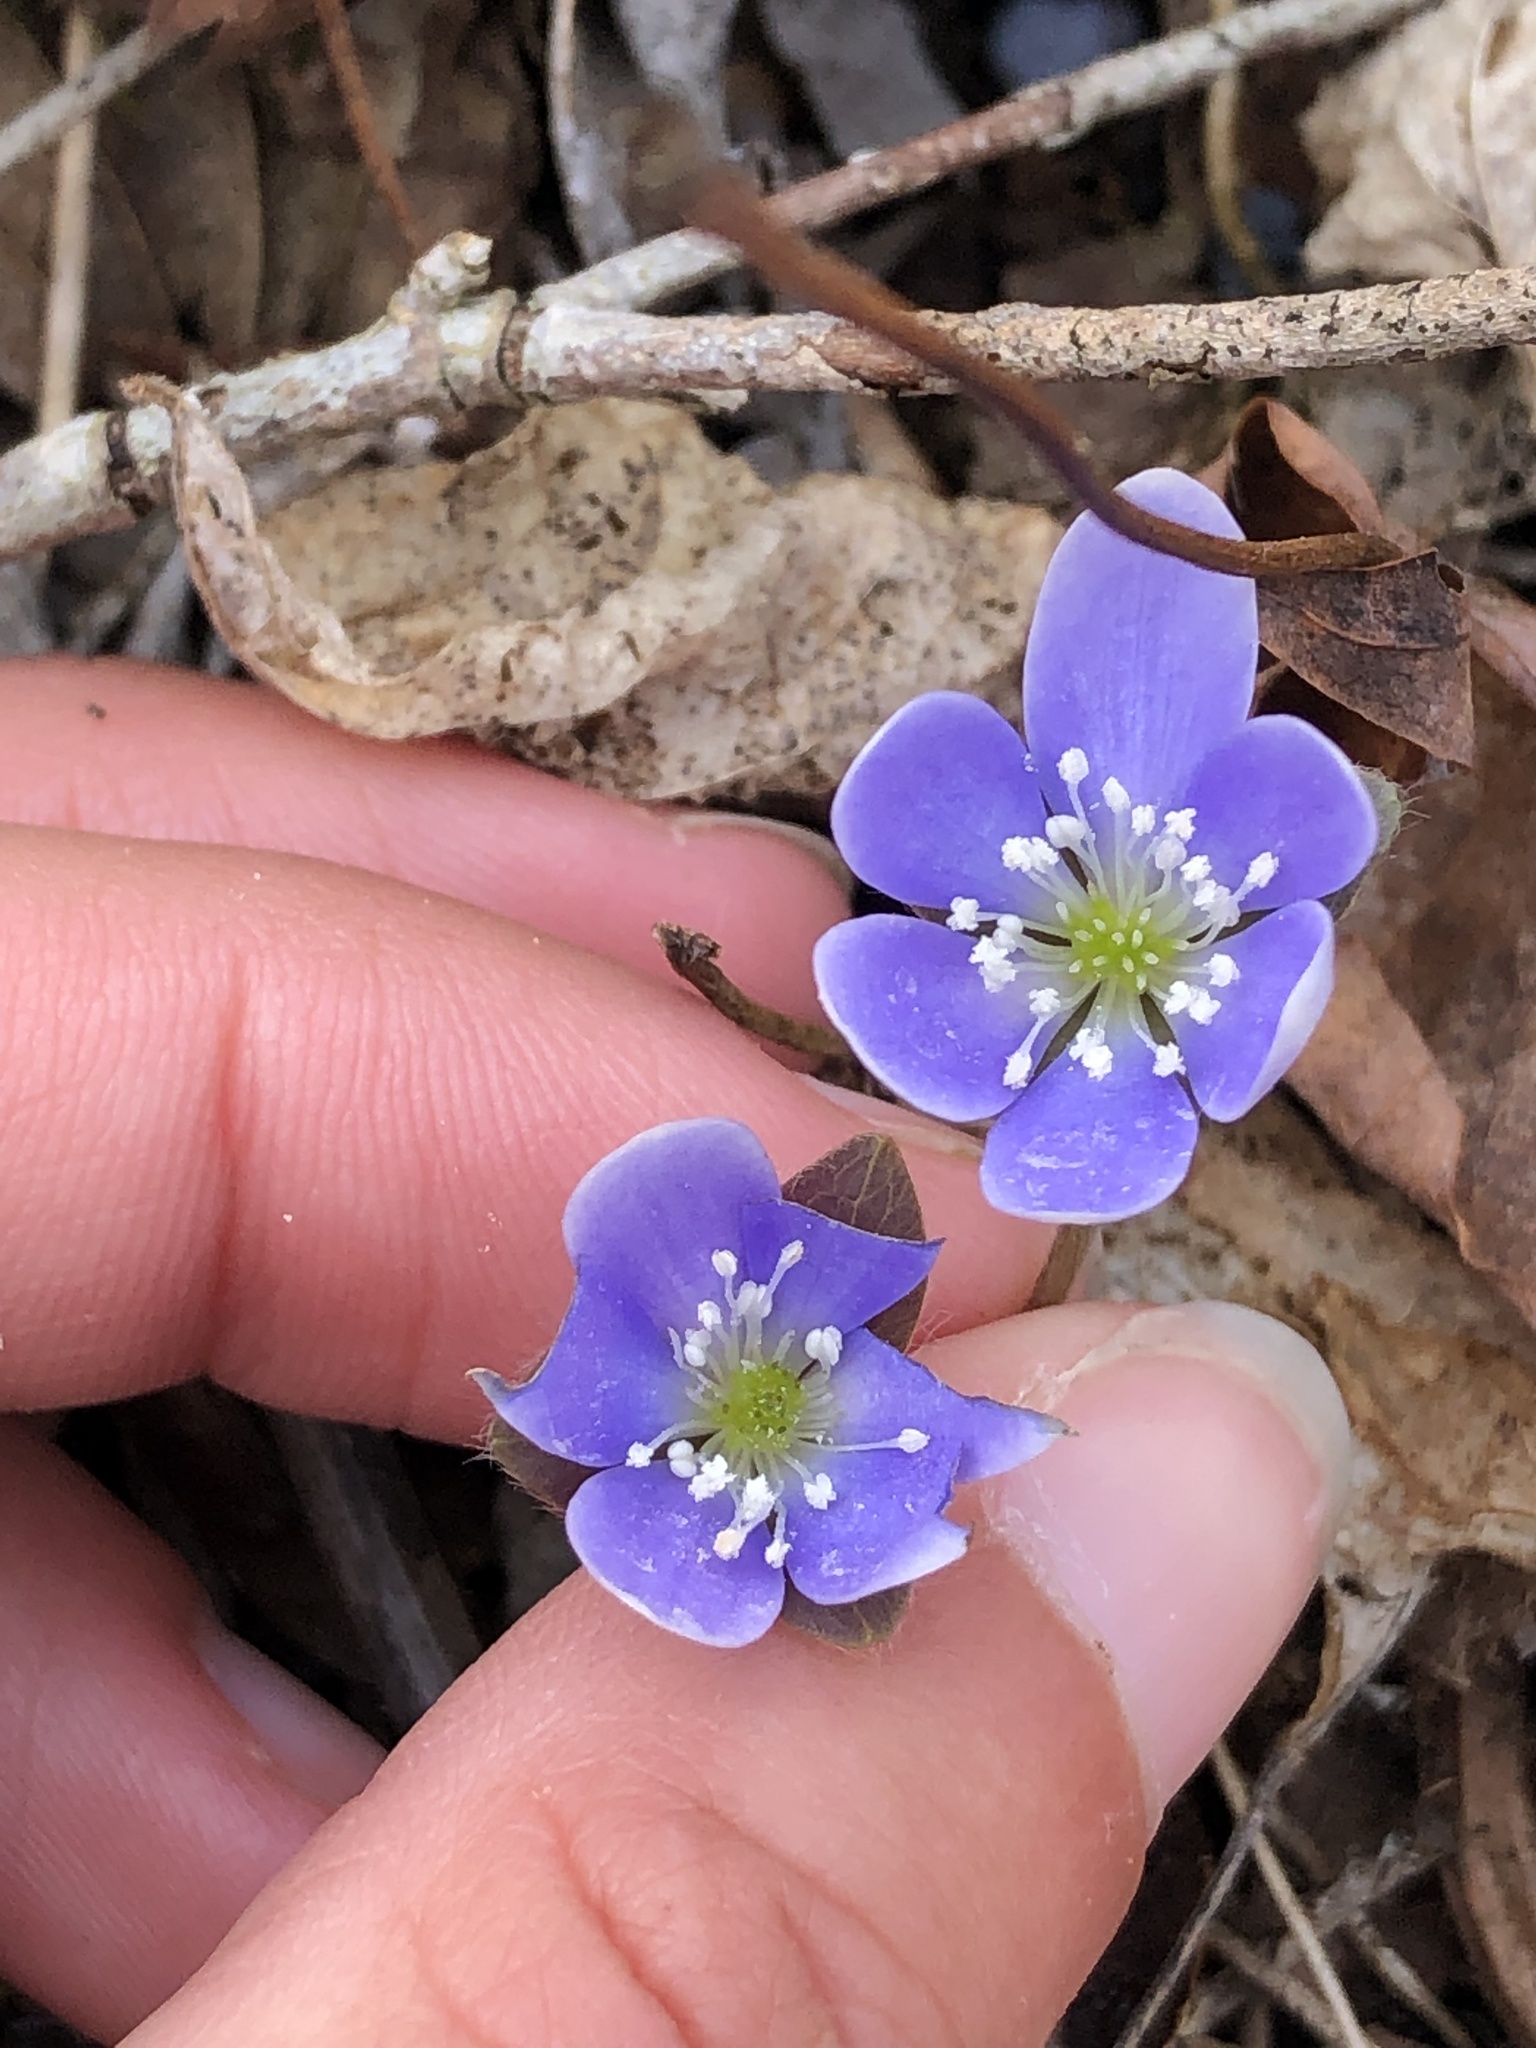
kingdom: Plantae
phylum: Tracheophyta
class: Magnoliopsida
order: Ranunculales
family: Ranunculaceae
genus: Hepatica
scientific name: Hepatica americana
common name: American hepatica
